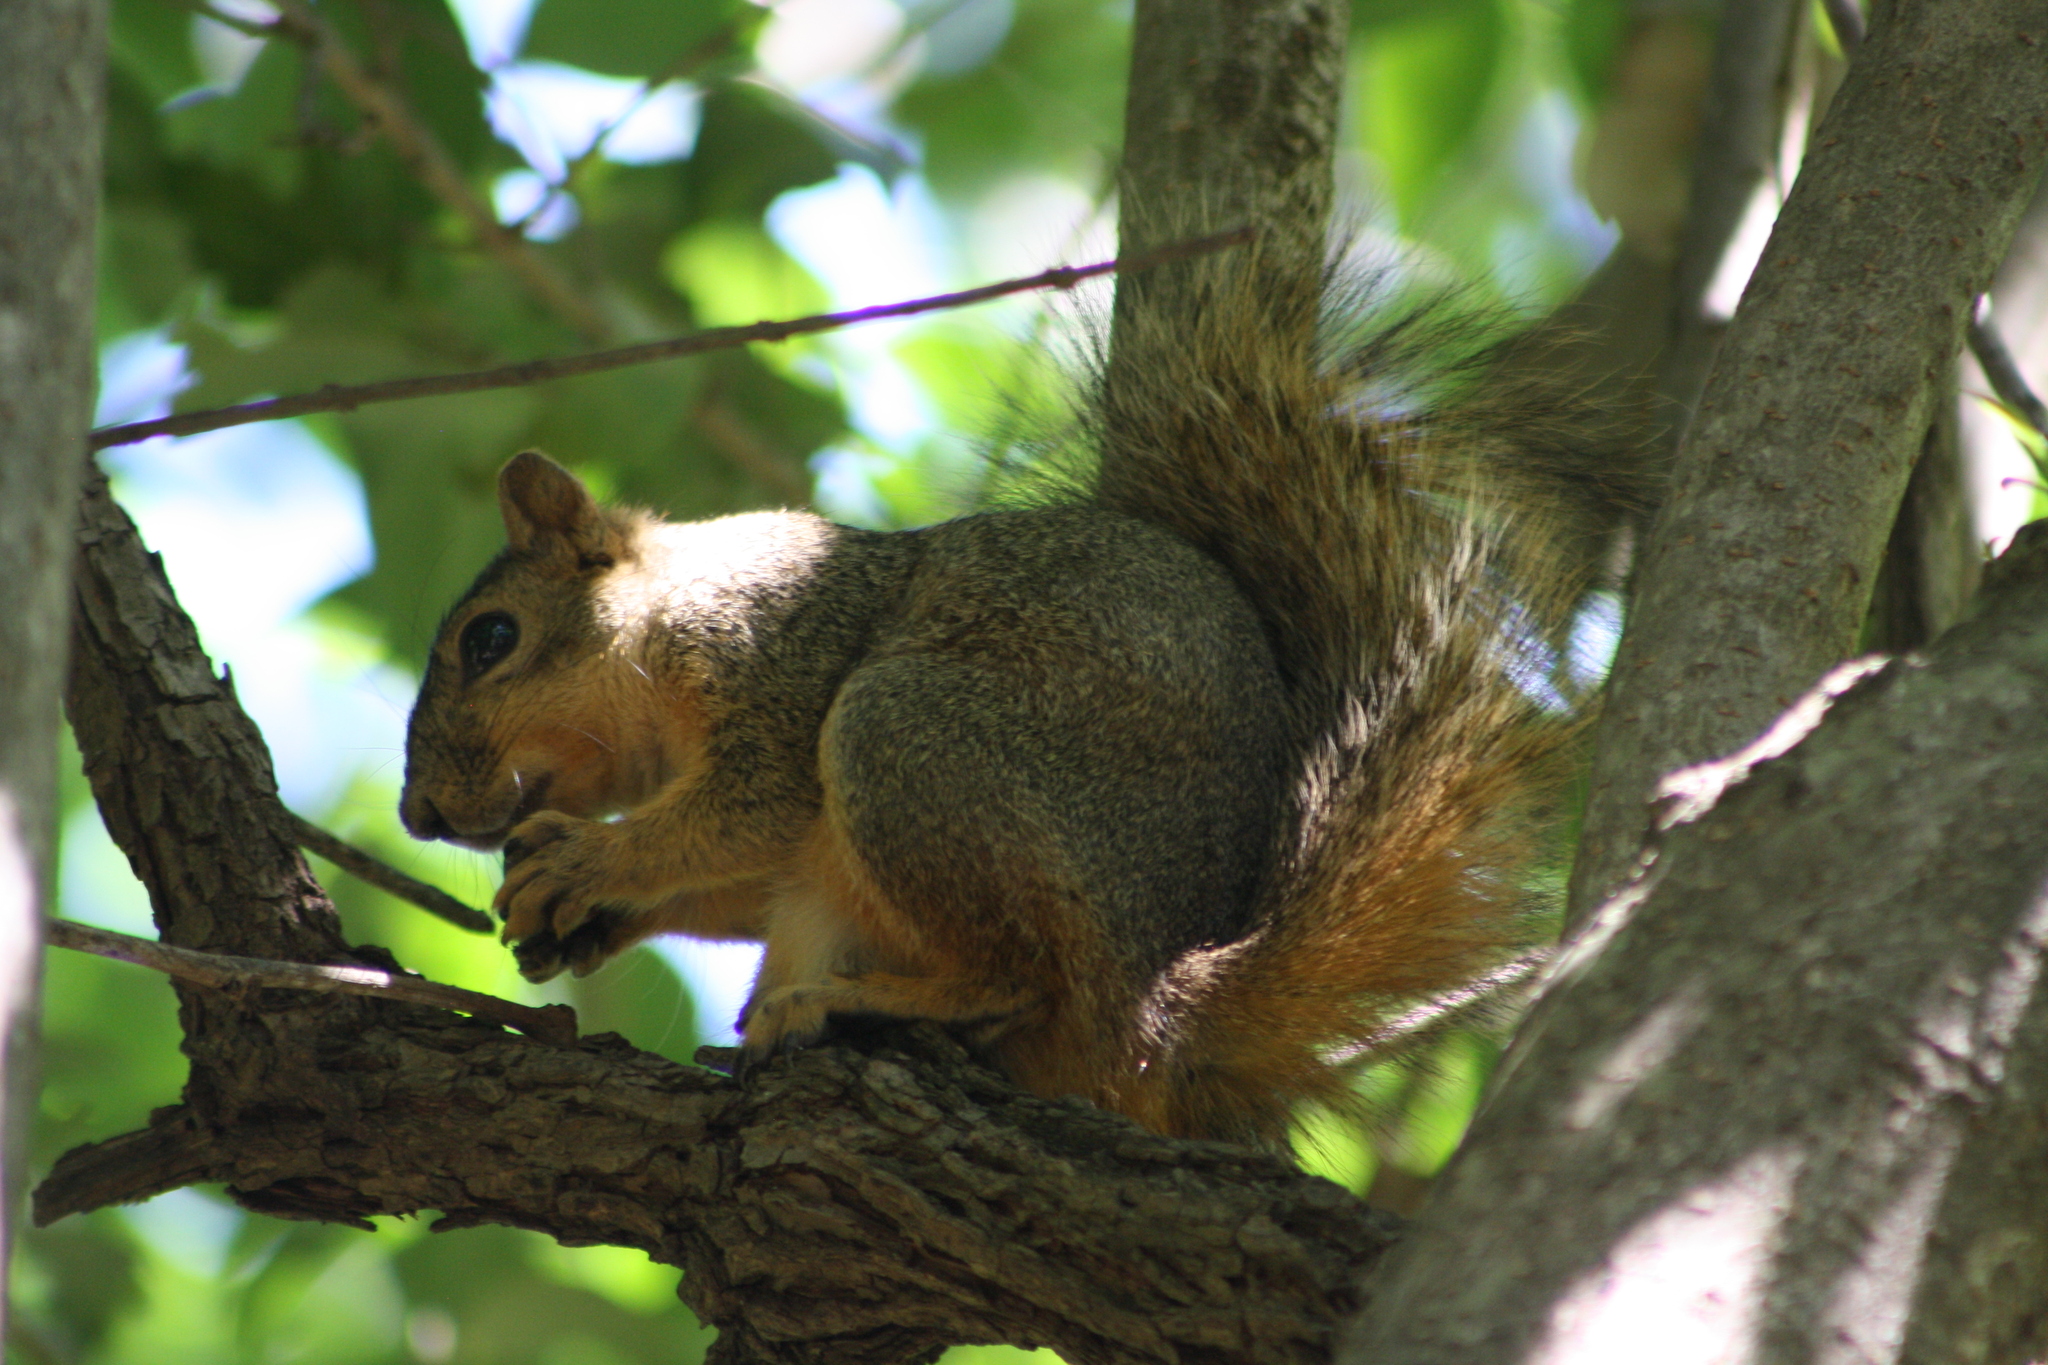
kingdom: Animalia
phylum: Chordata
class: Mammalia
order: Rodentia
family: Sciuridae
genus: Sciurus
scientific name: Sciurus niger
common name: Fox squirrel
